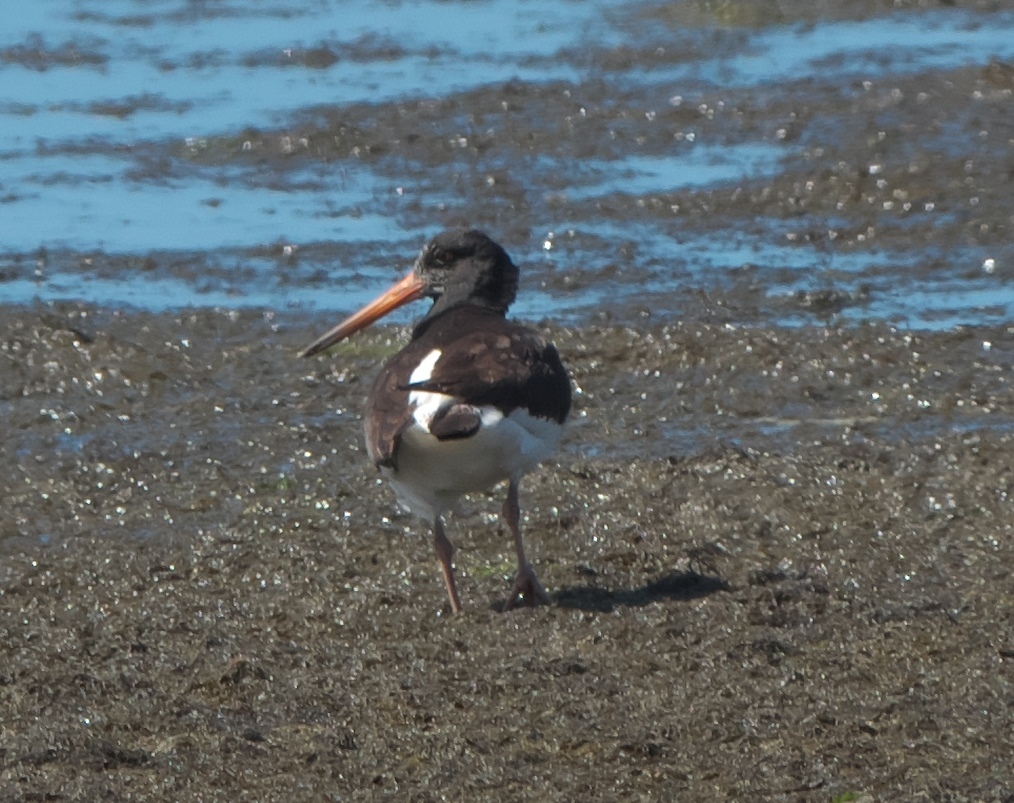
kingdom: Animalia
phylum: Chordata
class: Aves
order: Charadriiformes
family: Haematopodidae
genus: Haematopus
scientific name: Haematopus finschi
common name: South island oystercatcher
